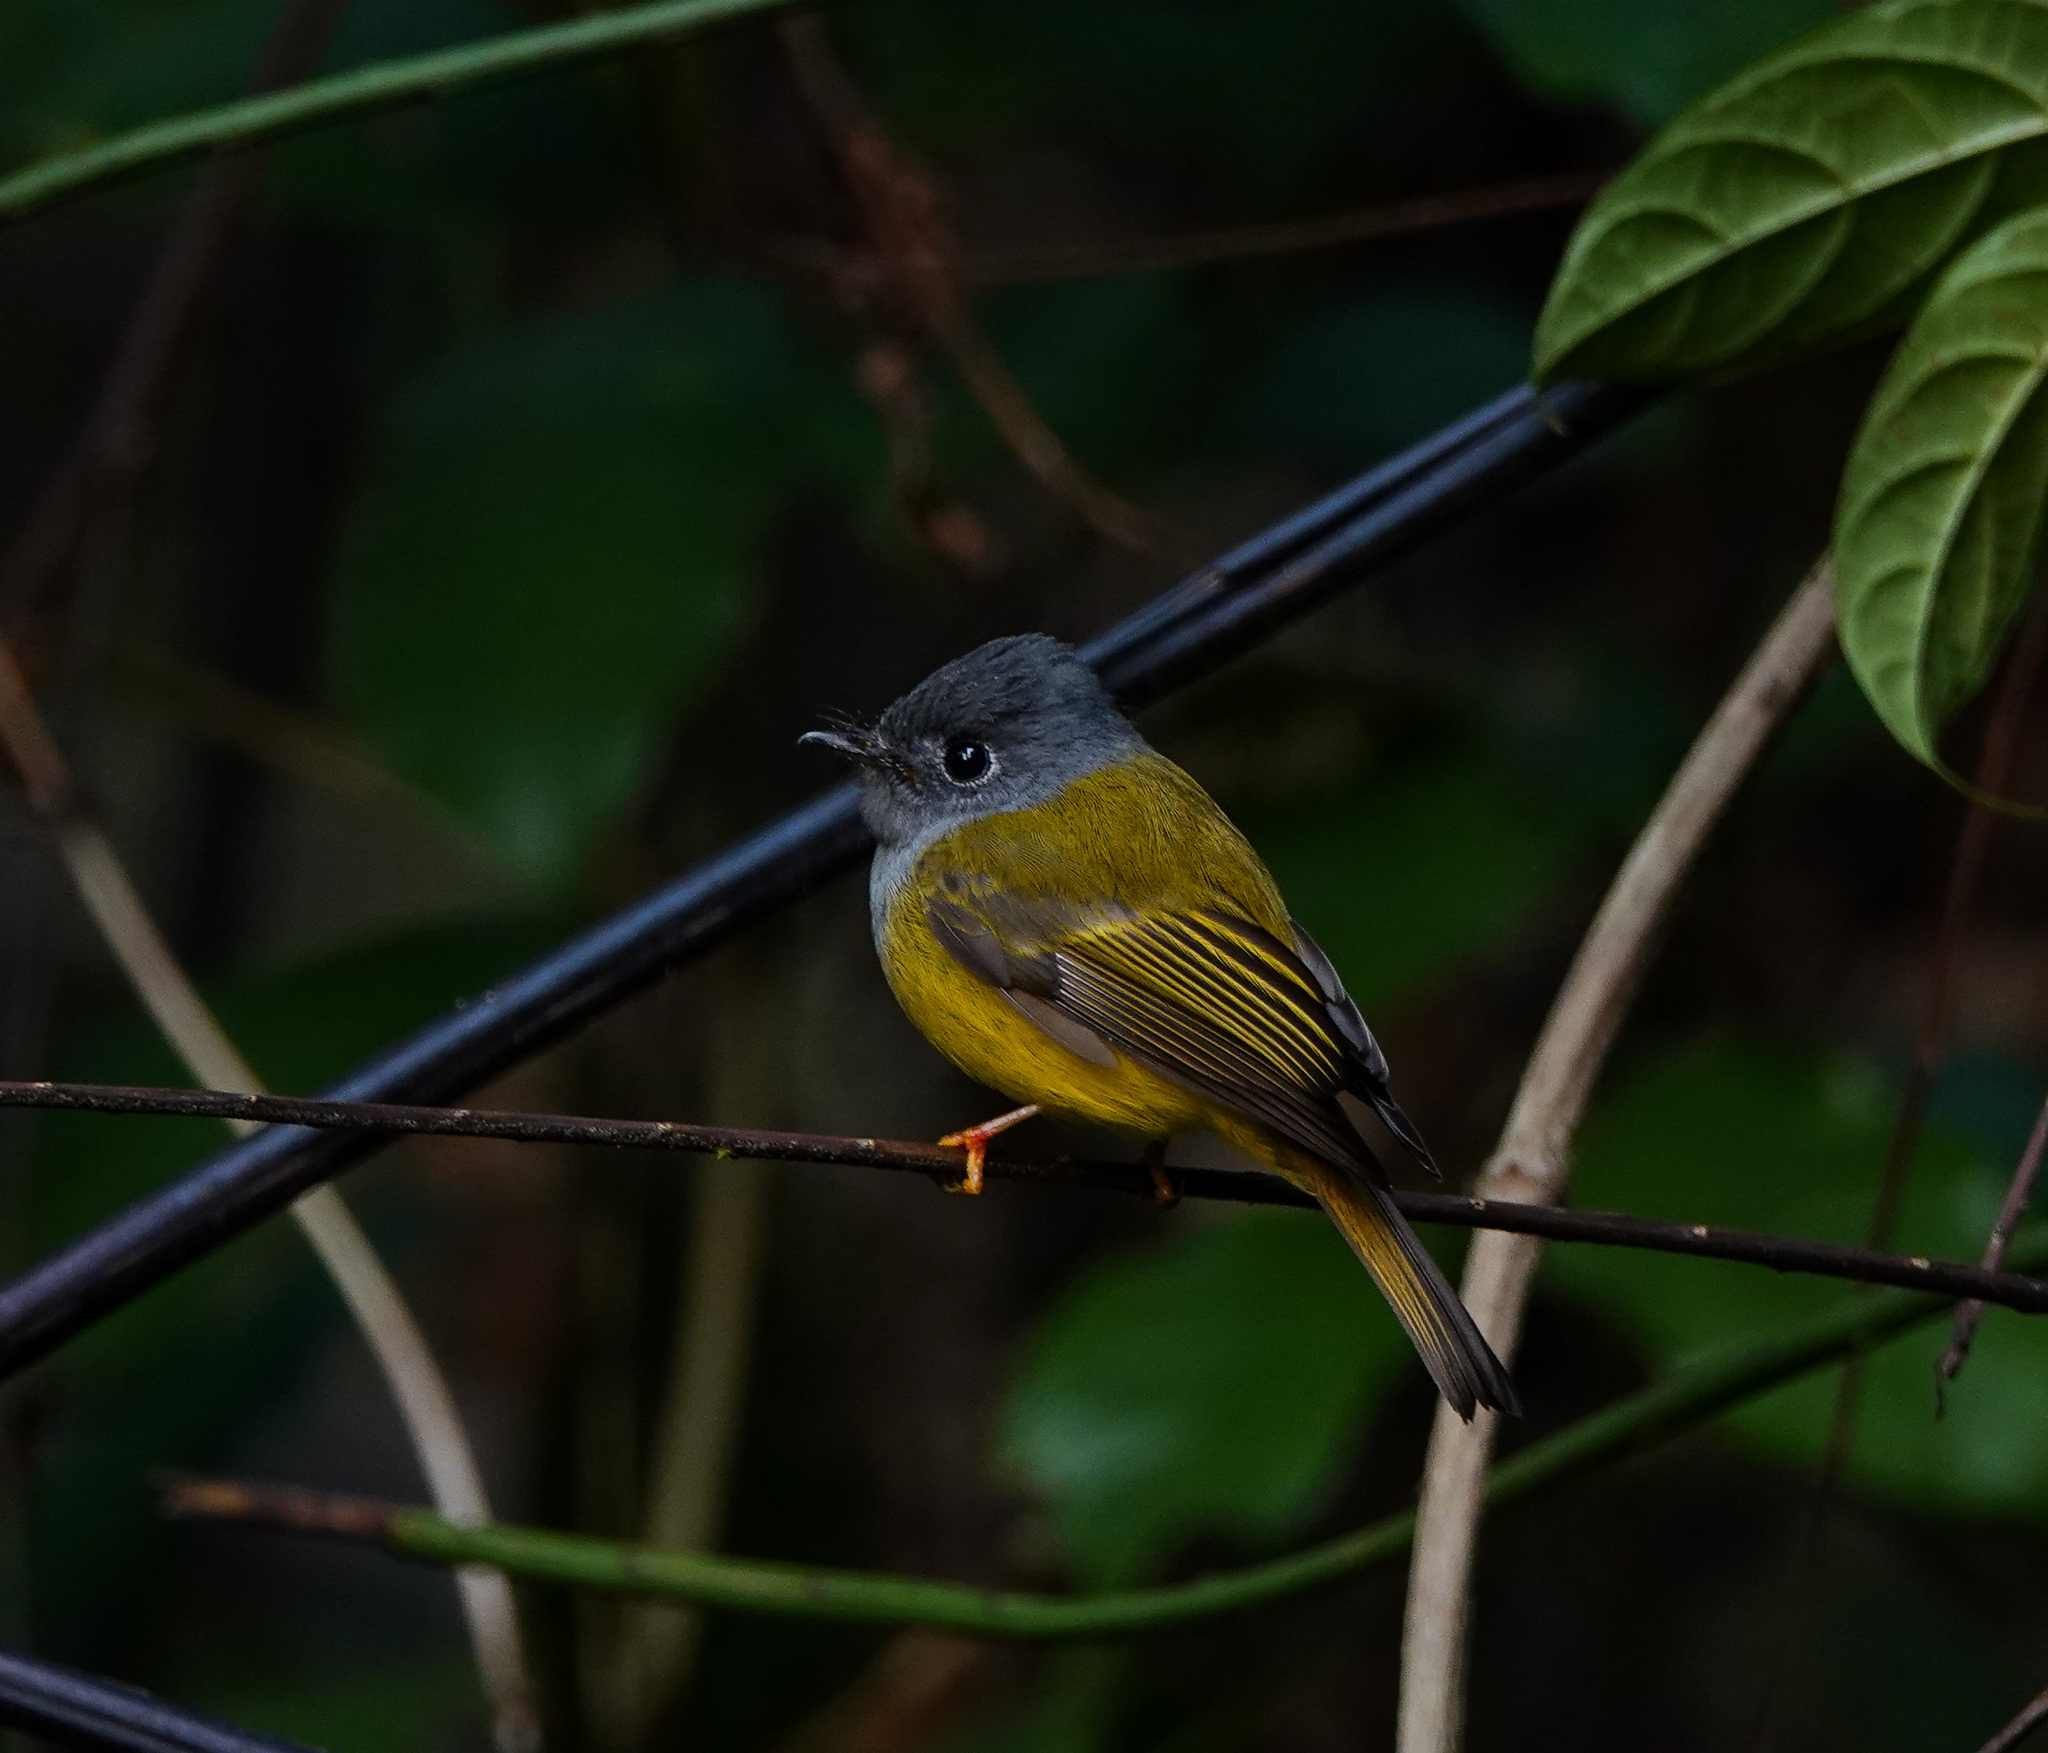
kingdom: Animalia
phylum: Chordata
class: Aves
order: Passeriformes
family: Stenostiridae
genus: Culicicapa
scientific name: Culicicapa ceylonensis
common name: Grey-headed canary-flycatcher
